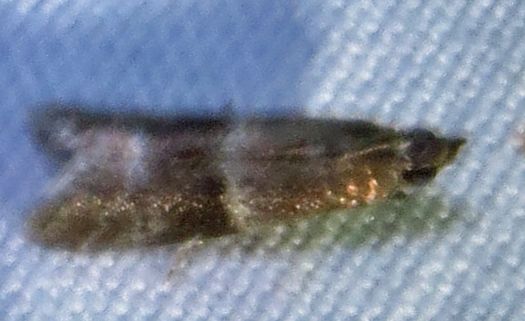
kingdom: Animalia
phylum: Arthropoda
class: Insecta
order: Lepidoptera
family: Pyralidae
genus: Moodna
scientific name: Moodna ostrinella
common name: Darker moodna moth
